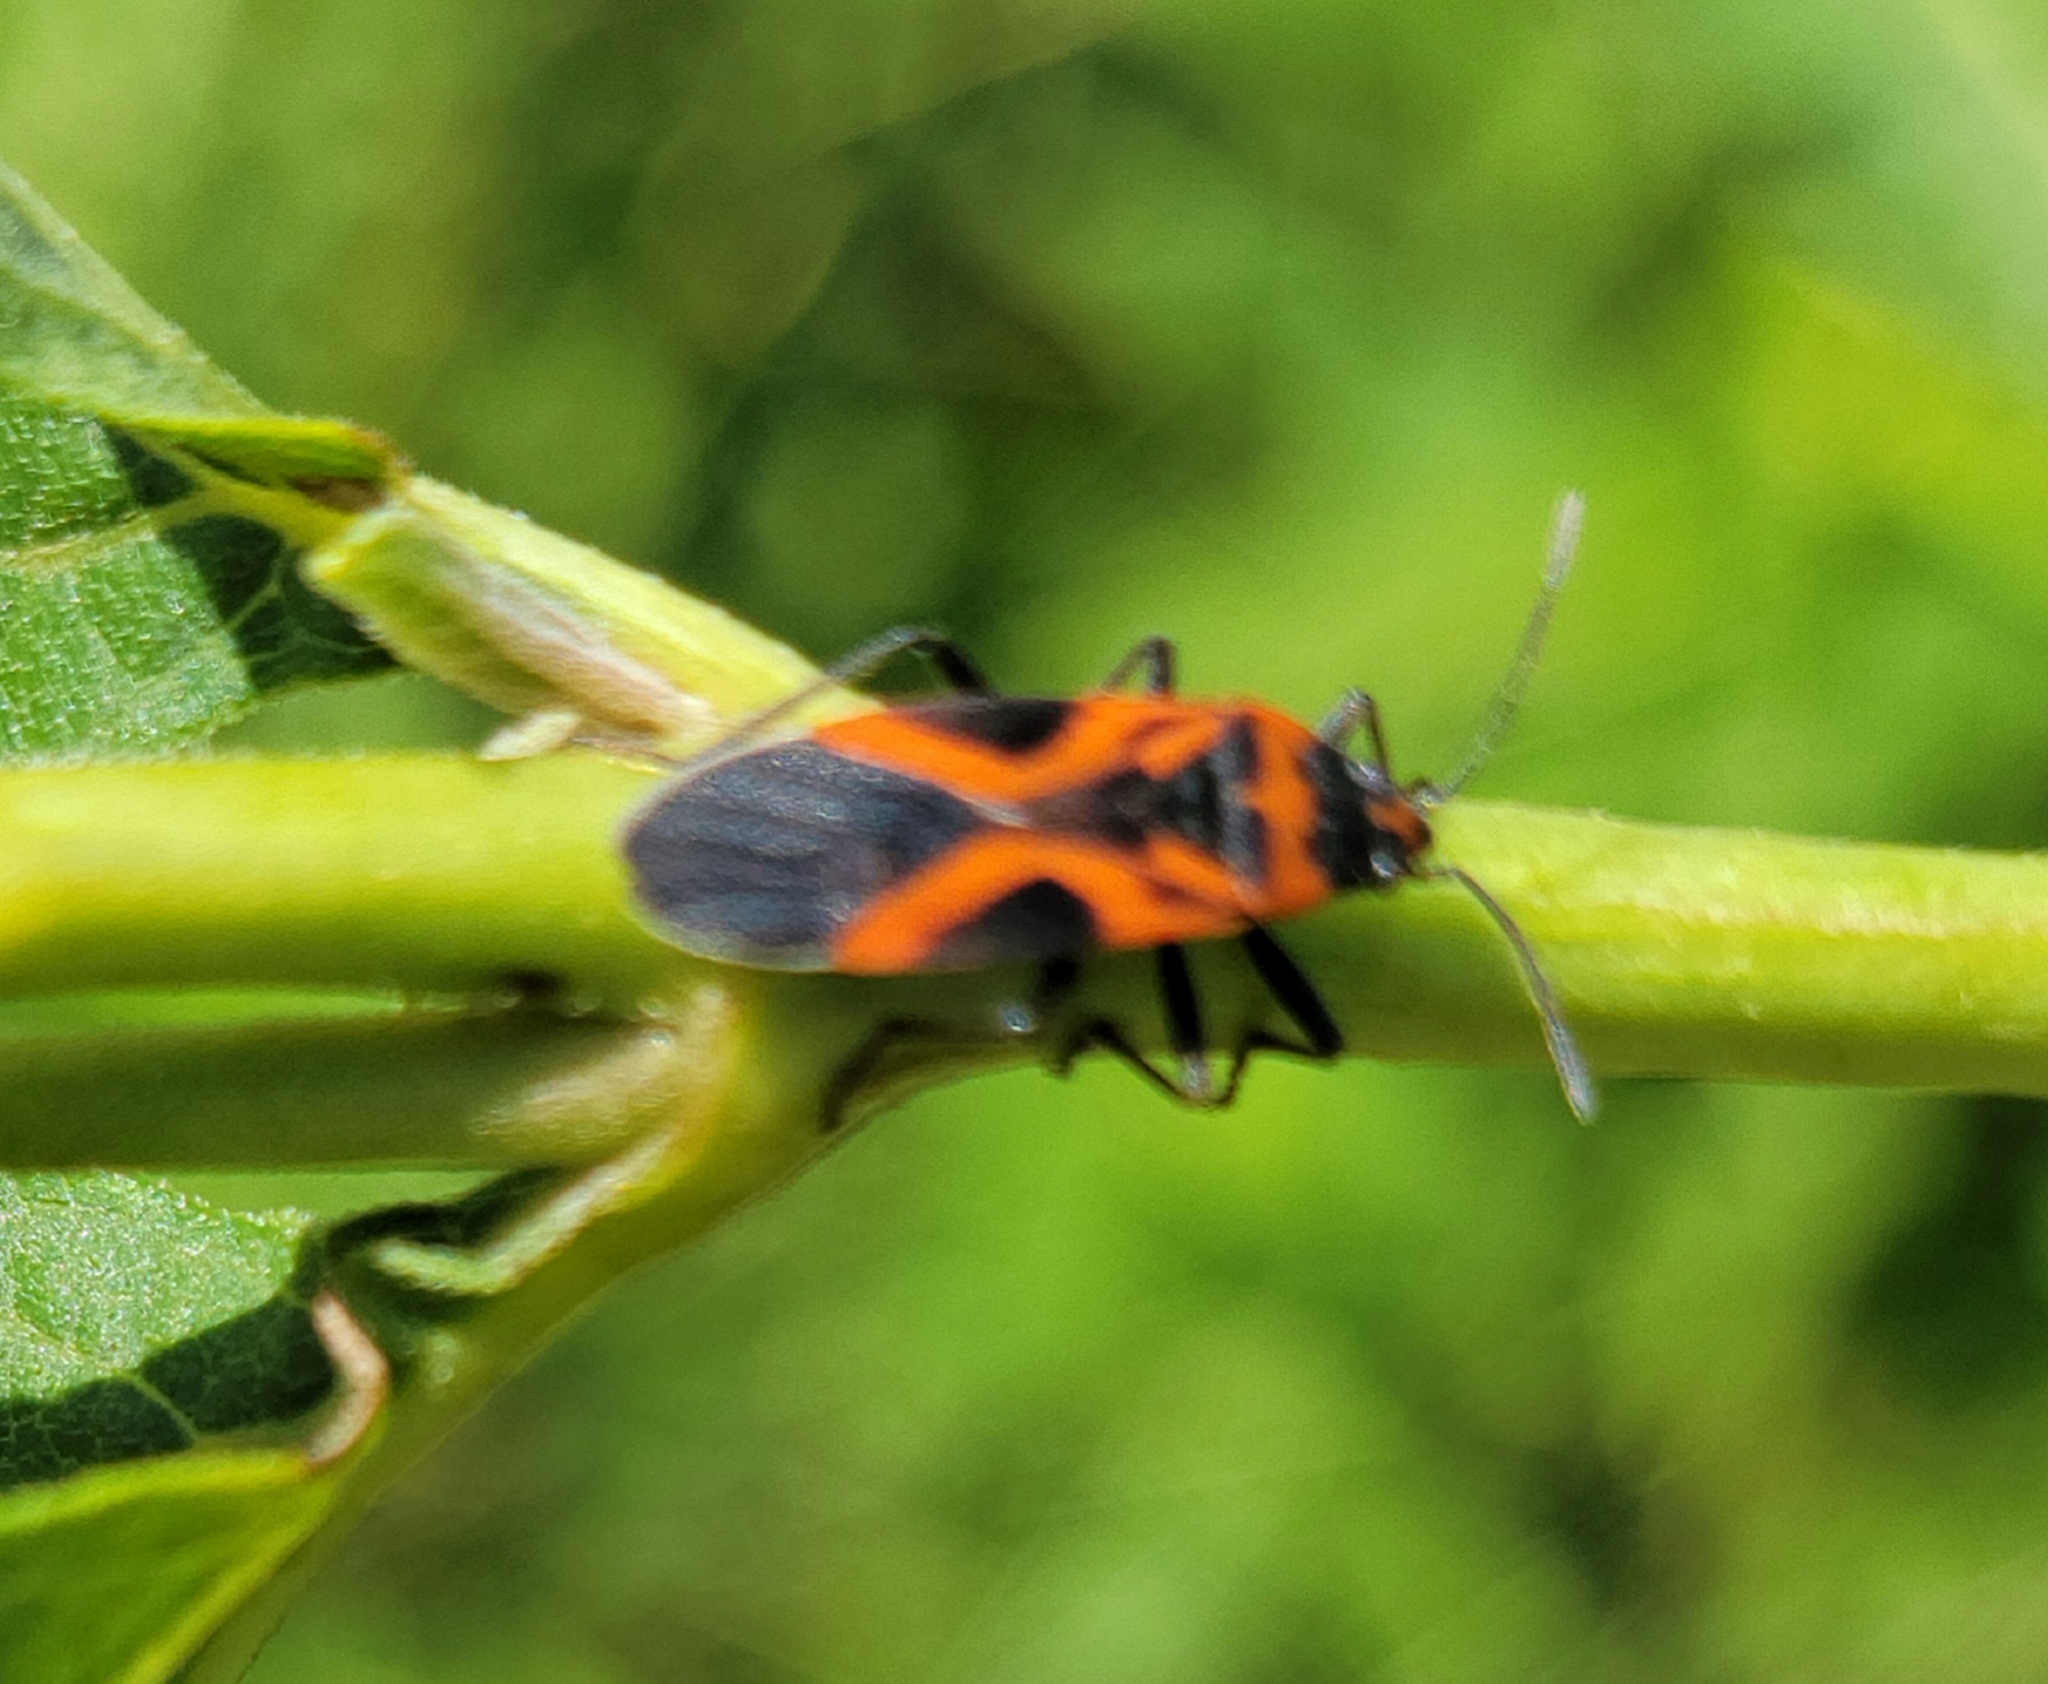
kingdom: Animalia
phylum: Arthropoda
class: Insecta
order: Hemiptera
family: Lygaeidae
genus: Lygaeus
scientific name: Lygaeus turcicus
